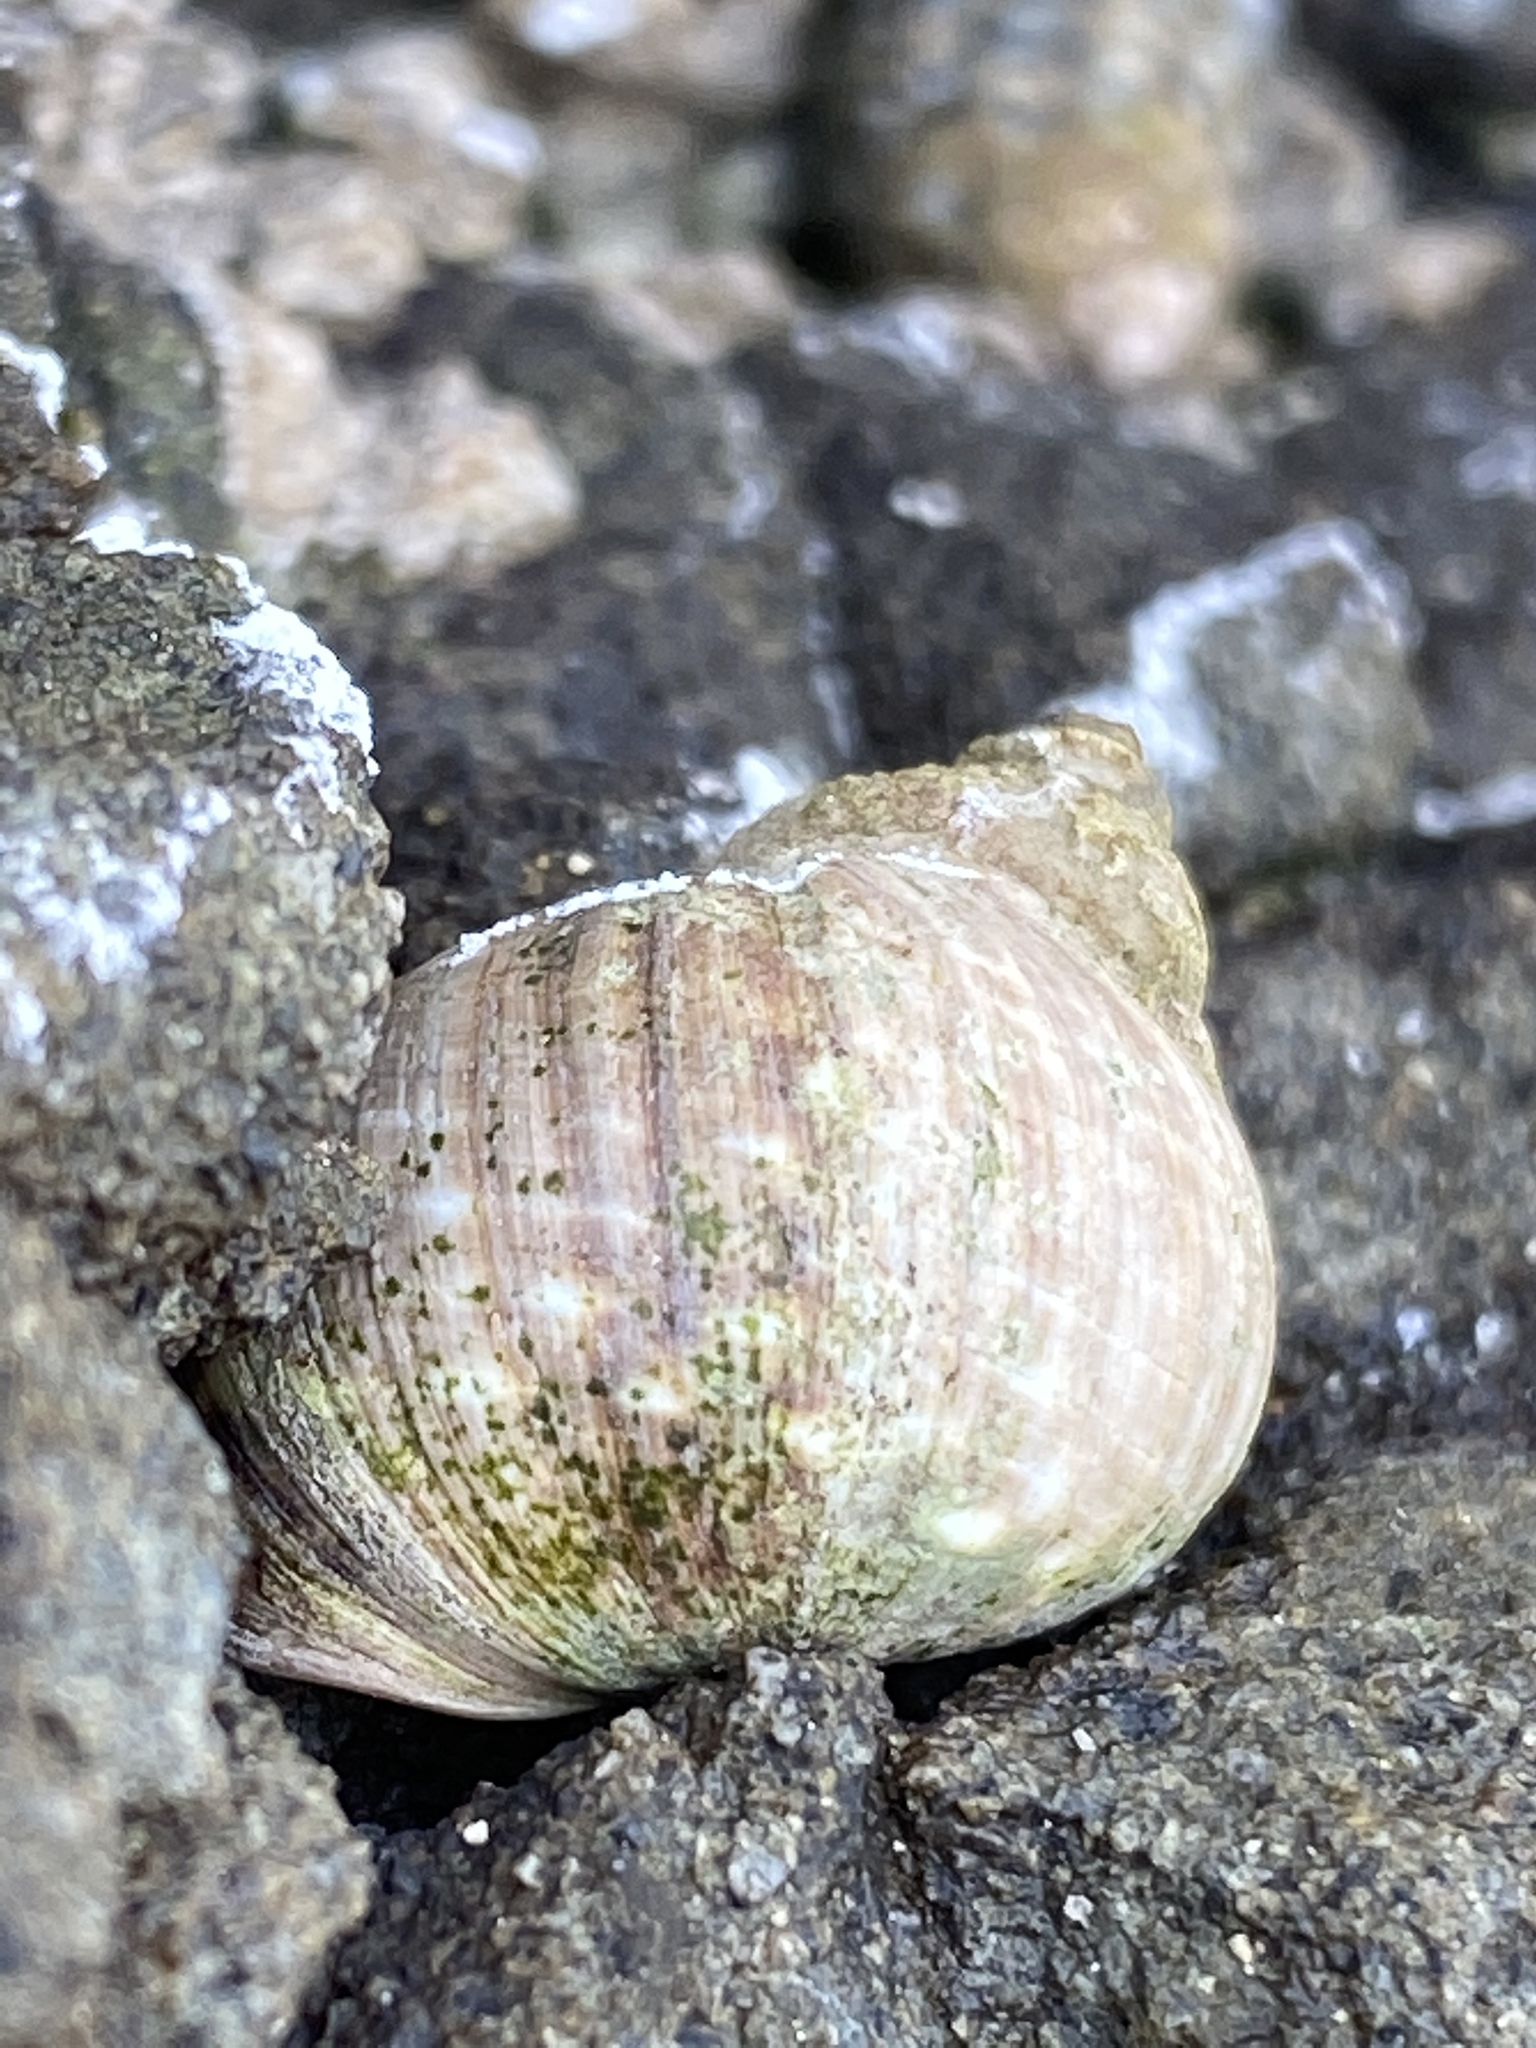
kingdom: Animalia
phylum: Mollusca
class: Gastropoda
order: Littorinimorpha
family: Littorinidae
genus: Littorina
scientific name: Littorina keenae
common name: Eroded periwinkle
